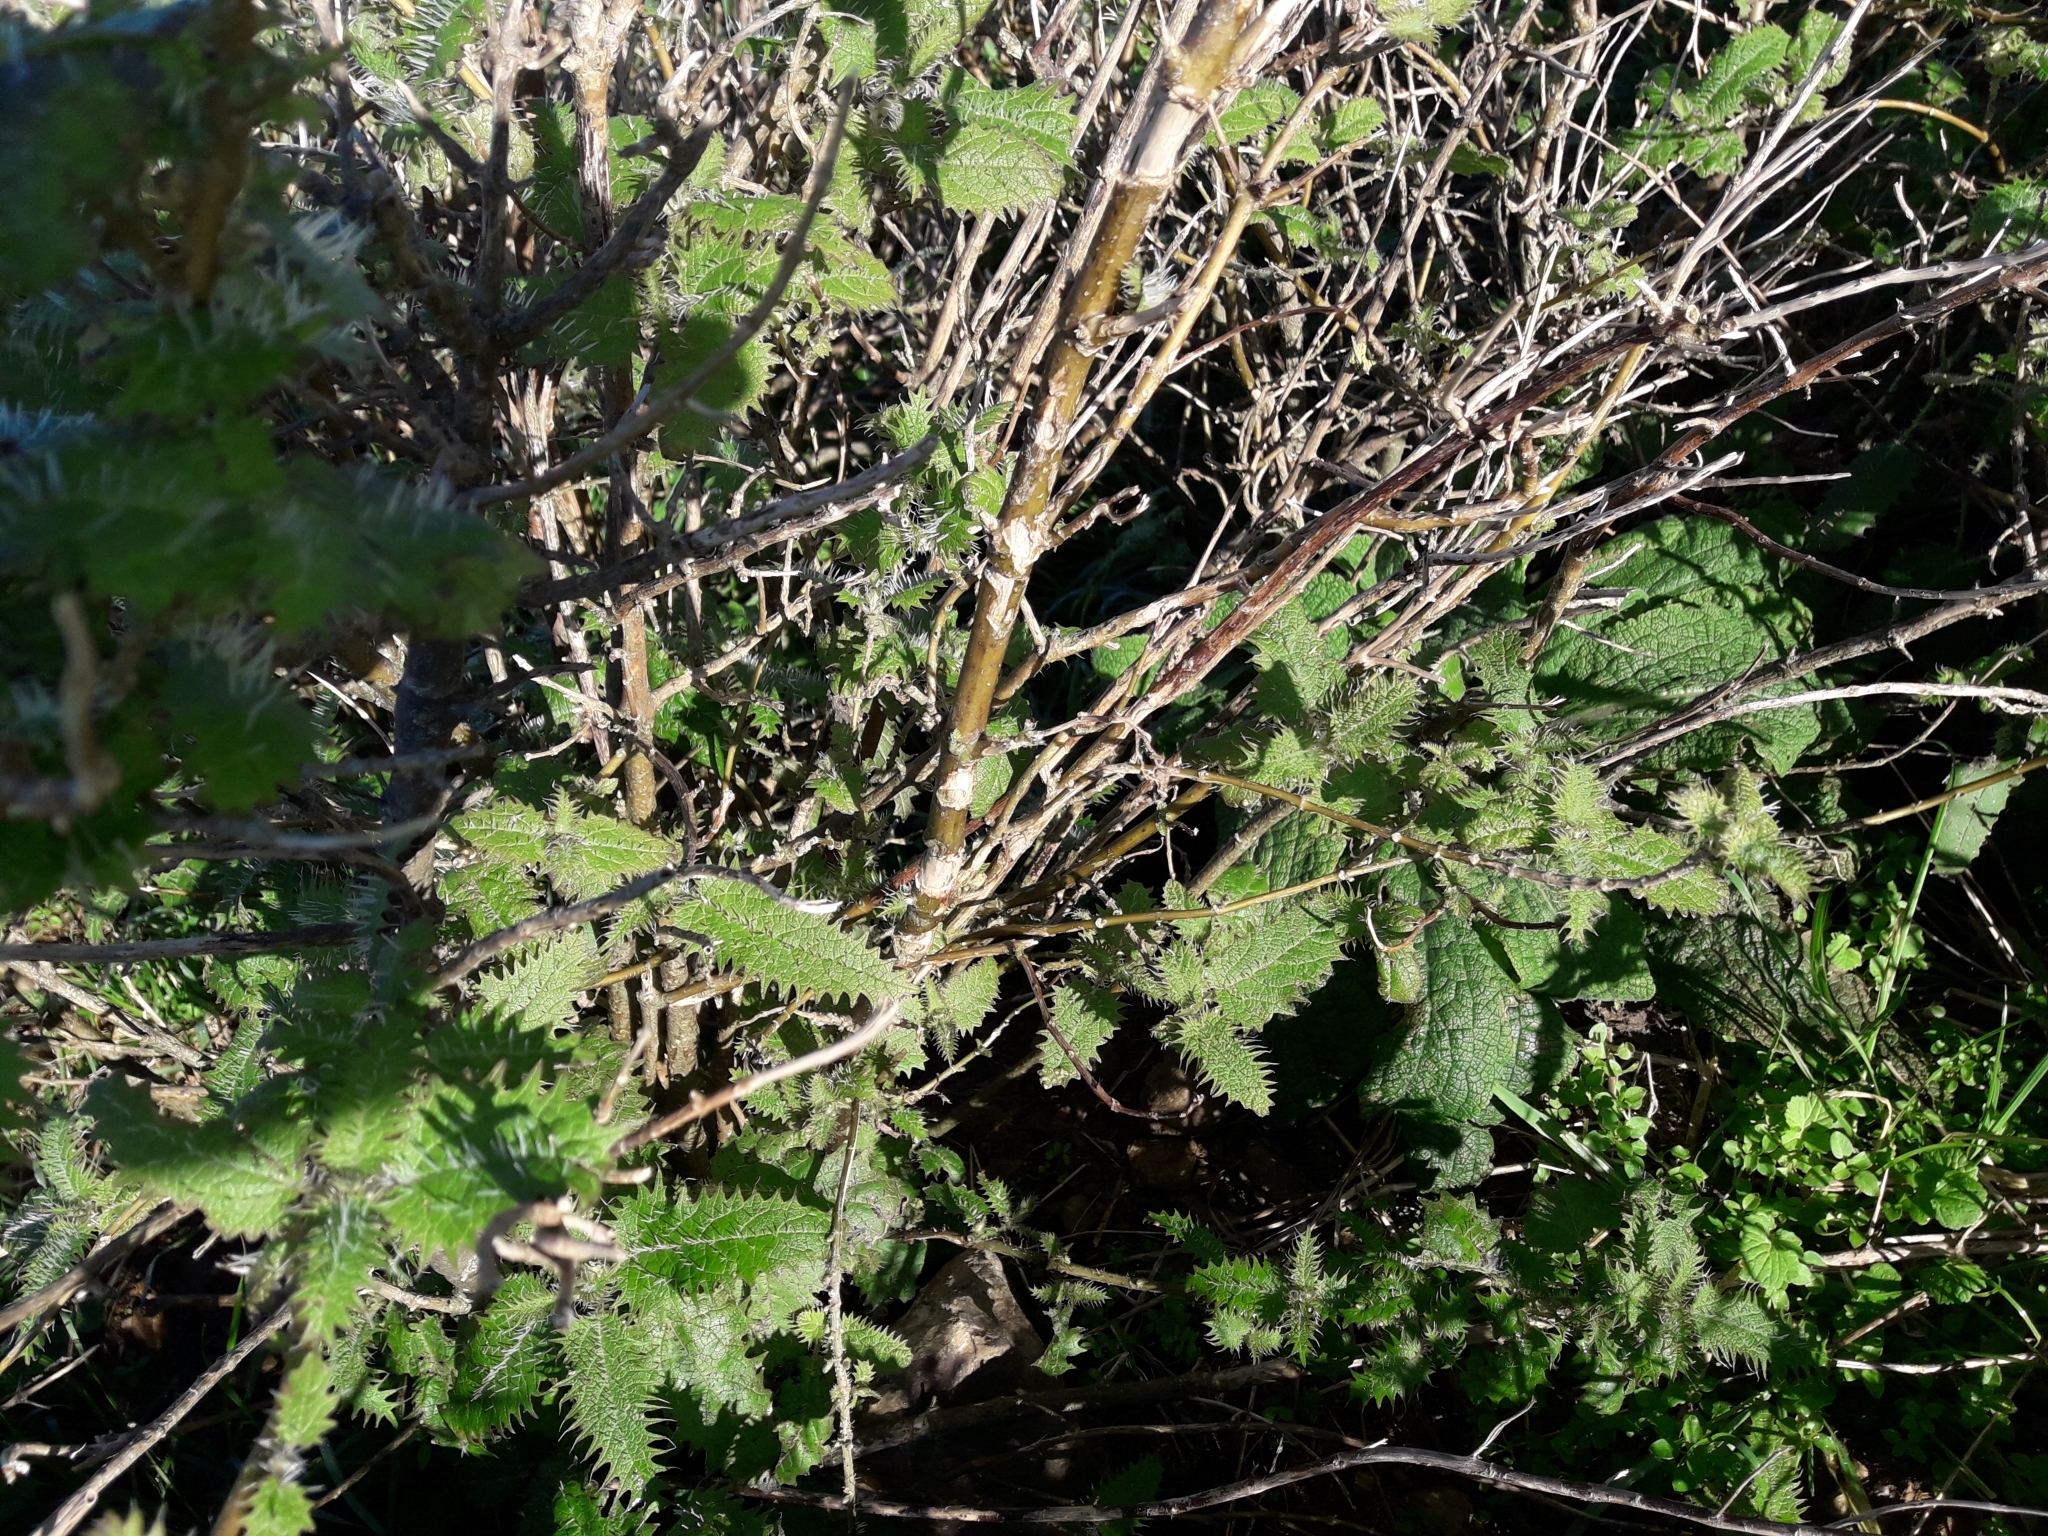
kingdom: Plantae
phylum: Tracheophyta
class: Magnoliopsida
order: Rosales
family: Urticaceae
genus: Urtica
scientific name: Urtica ferox
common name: Tree nettle
